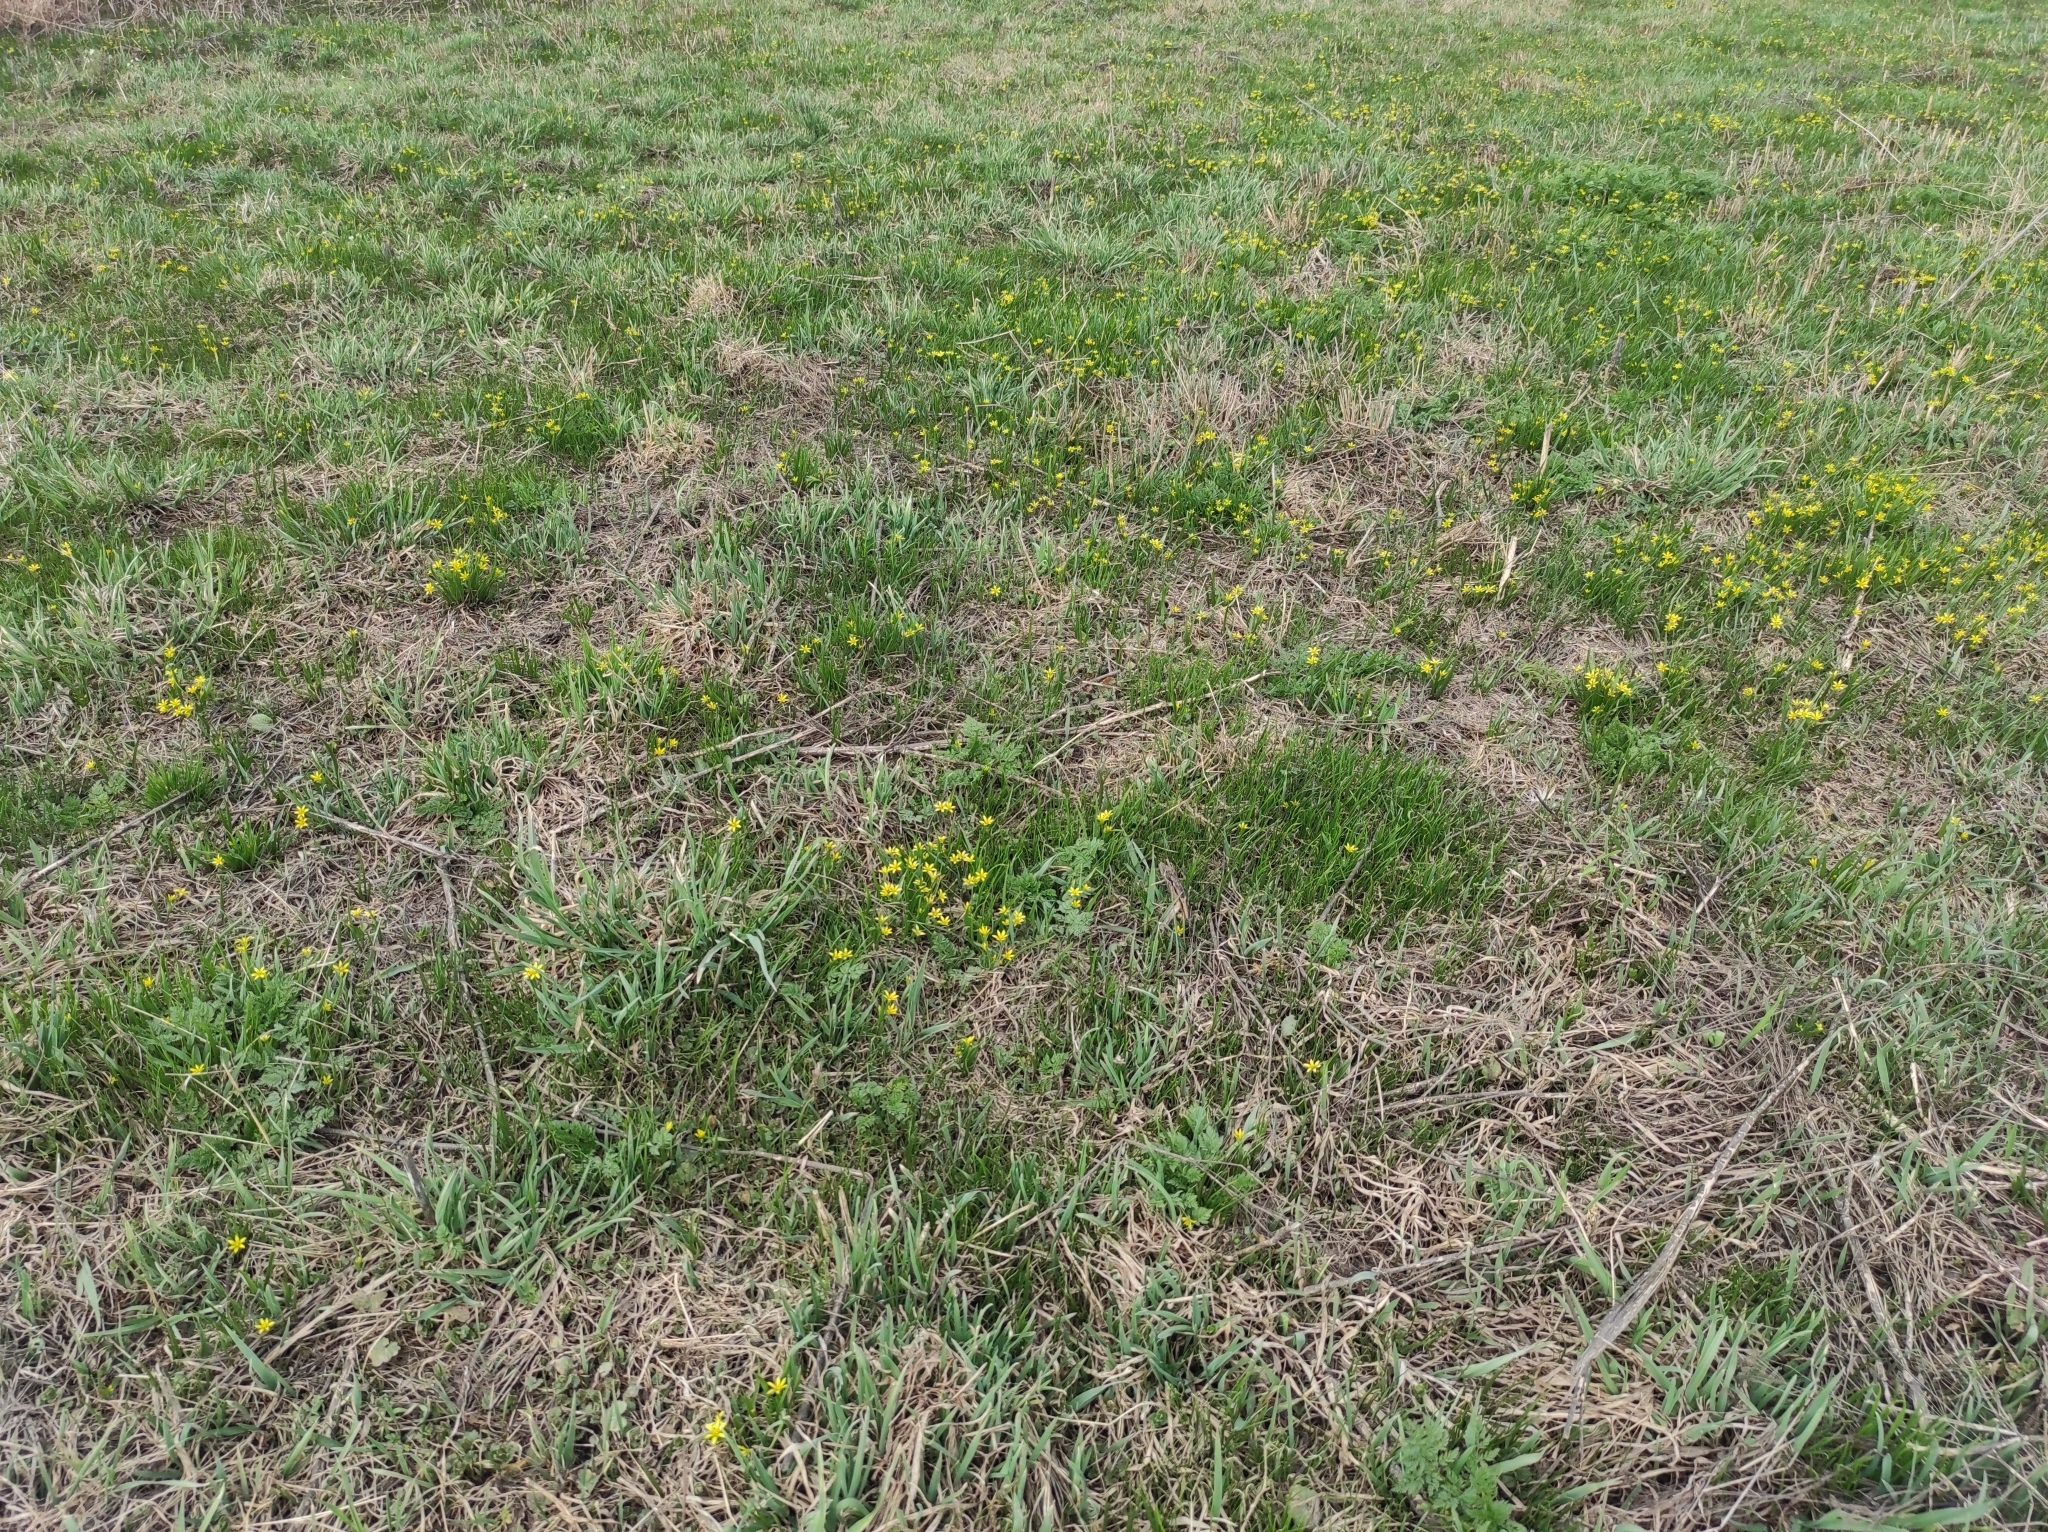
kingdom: Plantae
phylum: Tracheophyta
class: Magnoliopsida
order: Apiales
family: Apiaceae
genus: Anthriscus
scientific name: Anthriscus sylvestris
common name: Cow parsley
